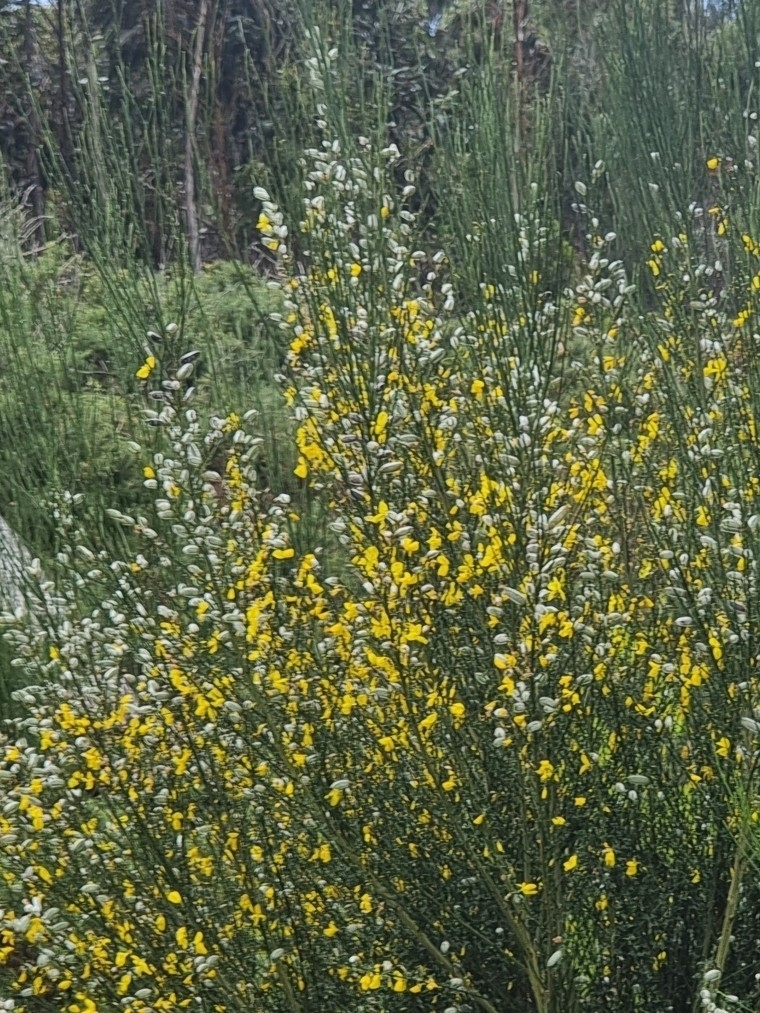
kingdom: Plantae
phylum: Tracheophyta
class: Magnoliopsida
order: Fabales
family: Fabaceae
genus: Cytisus
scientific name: Cytisus striatus
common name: Hairy-fruited broom
